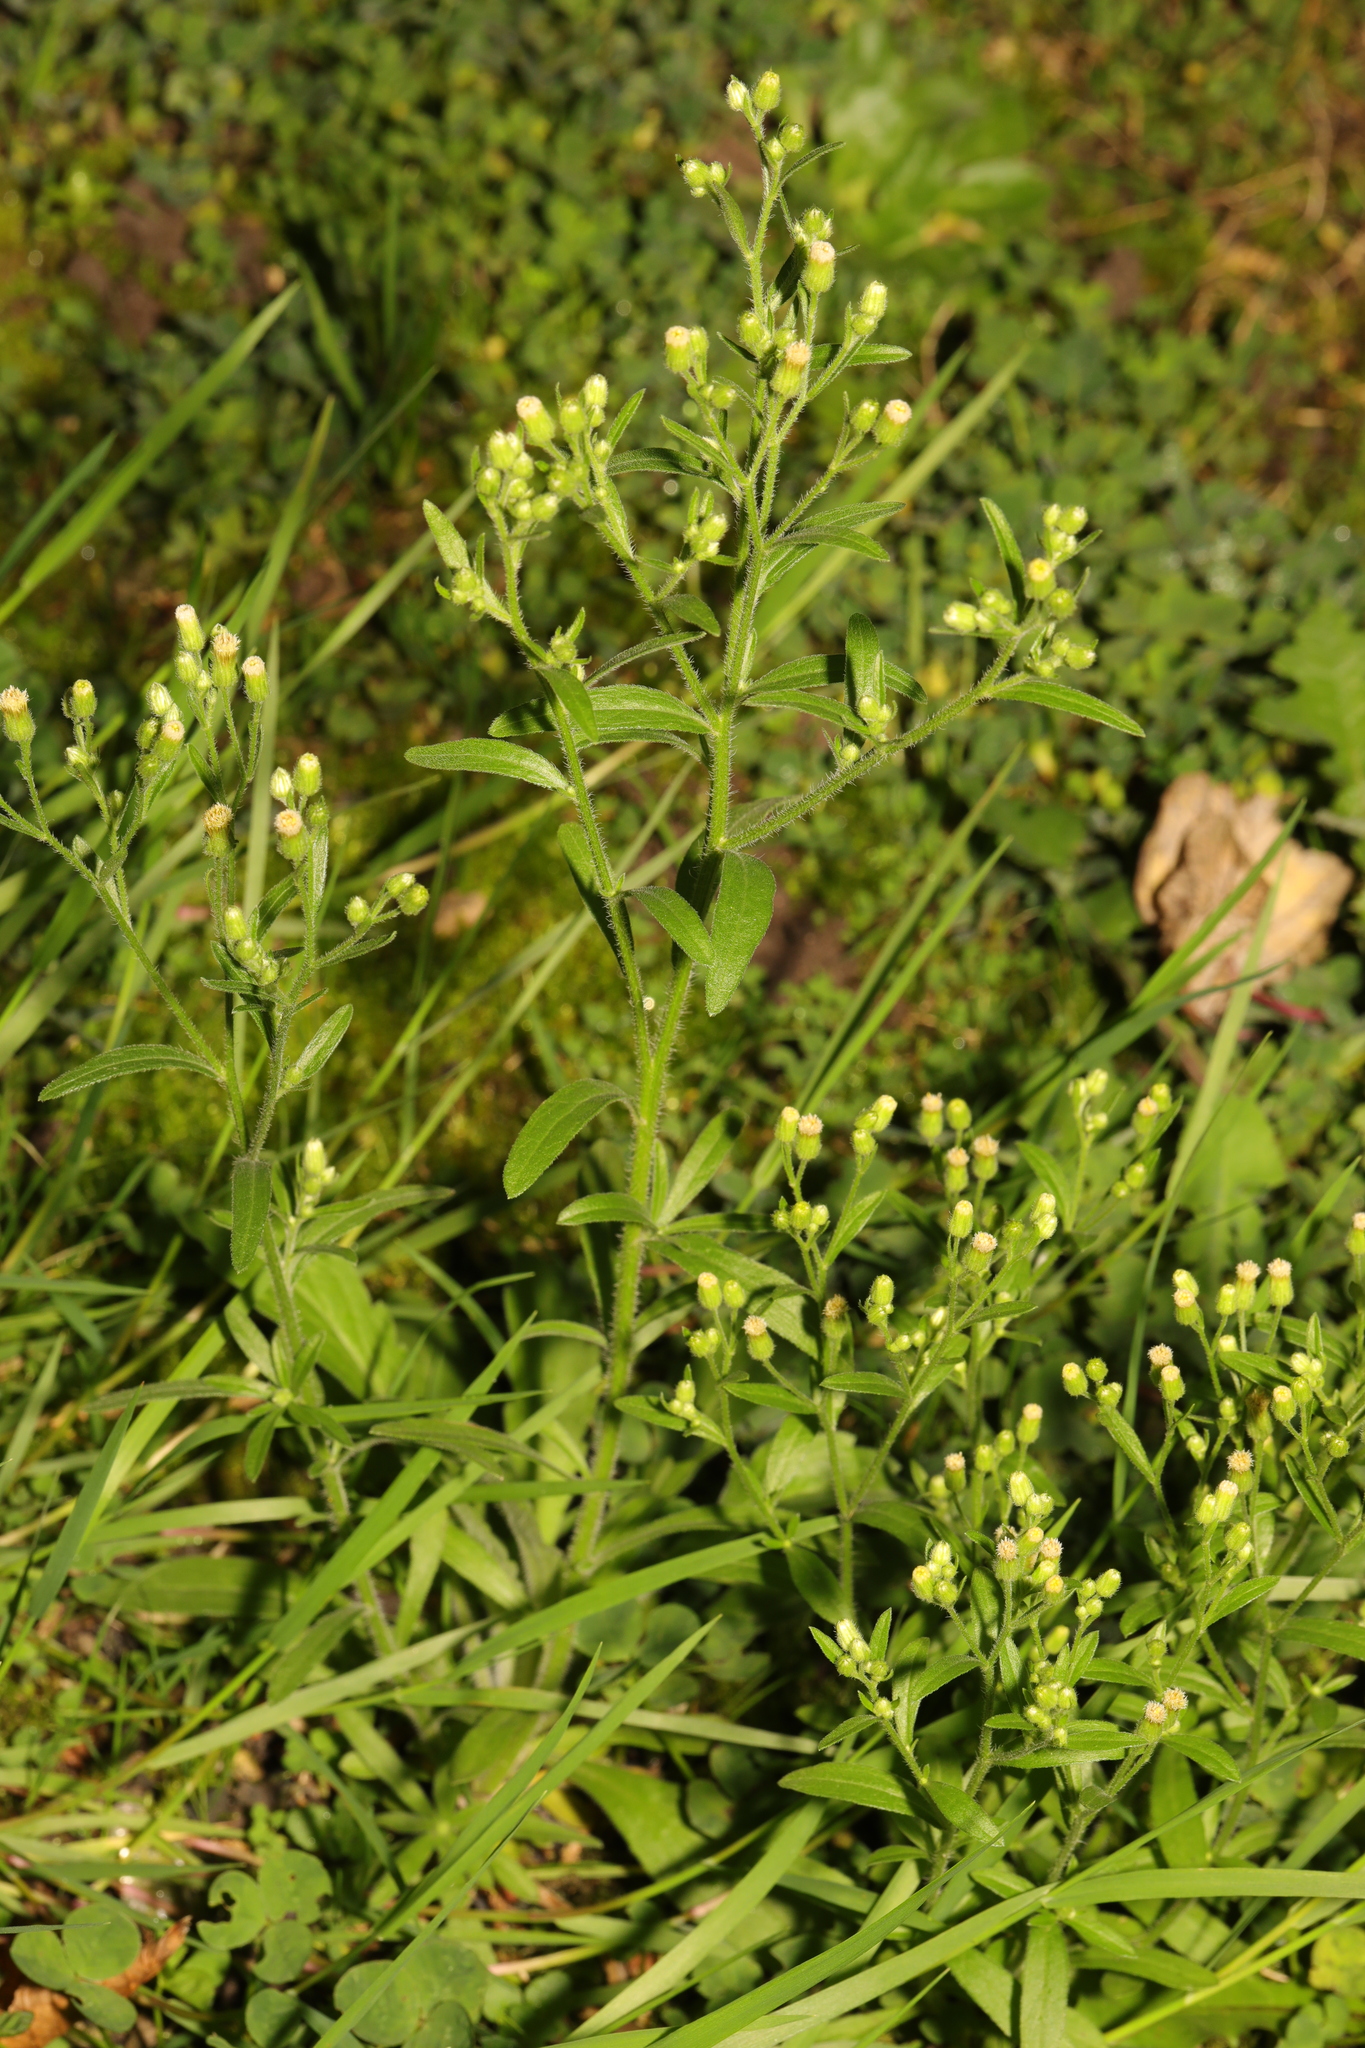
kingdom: Plantae
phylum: Tracheophyta
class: Magnoliopsida
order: Asterales
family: Asteraceae
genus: Erigeron
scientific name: Erigeron sumatrensis
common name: Daisy
